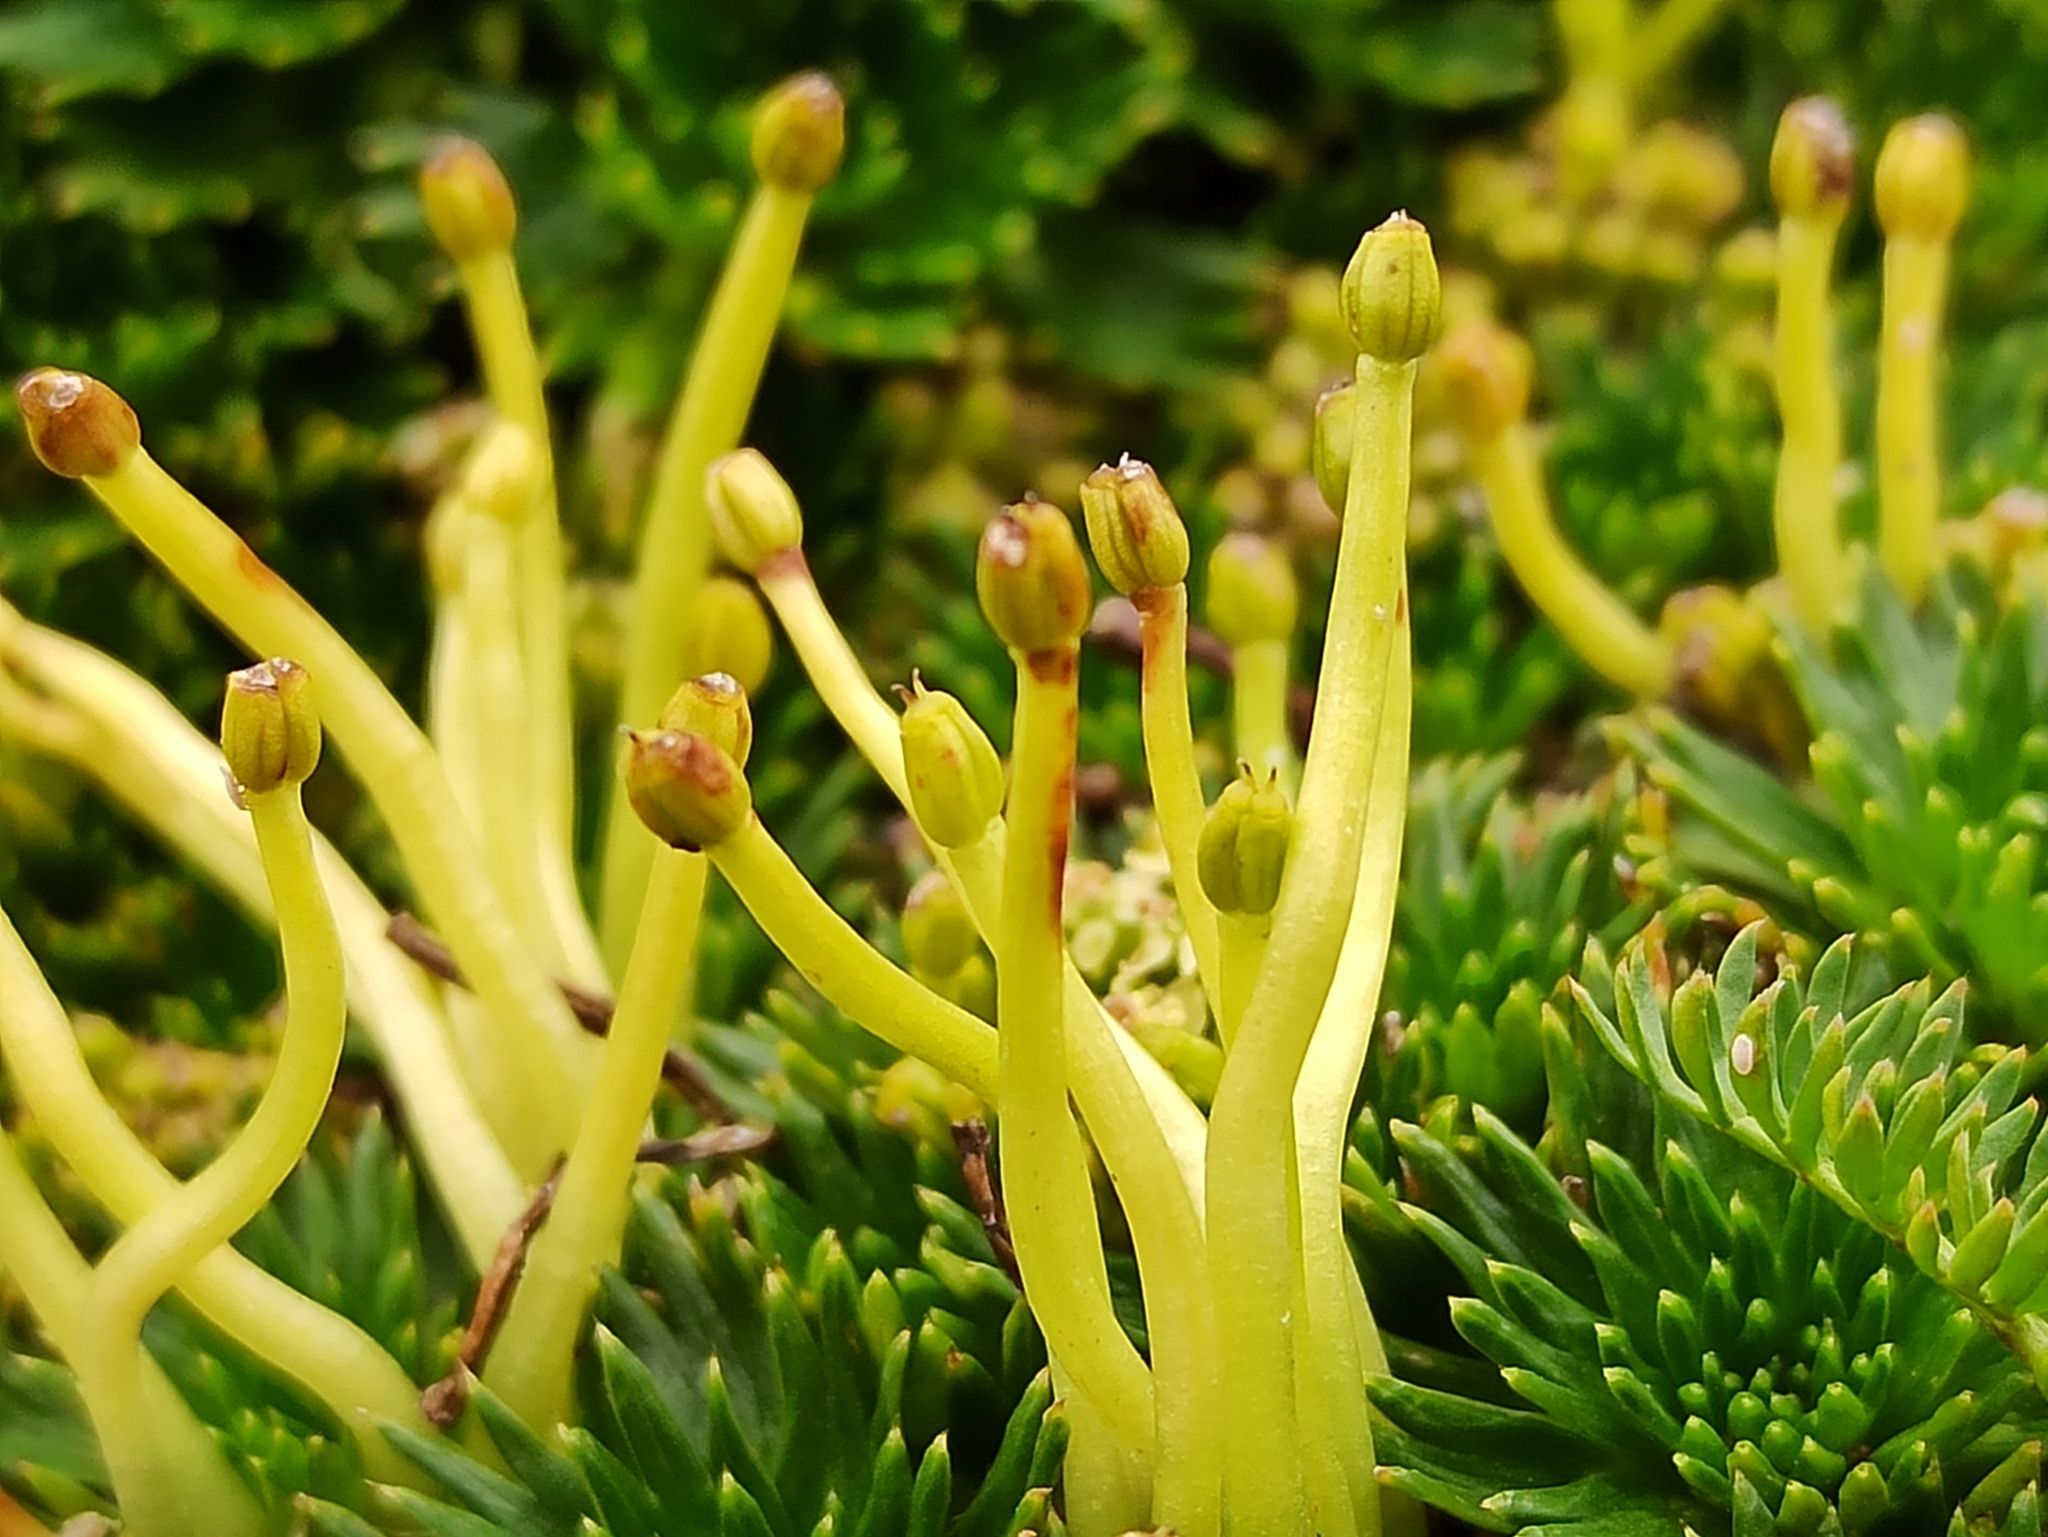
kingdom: Plantae
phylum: Tracheophyta
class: Magnoliopsida
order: Apiales
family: Apiaceae
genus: Azorella
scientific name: Azorella pedunculata
